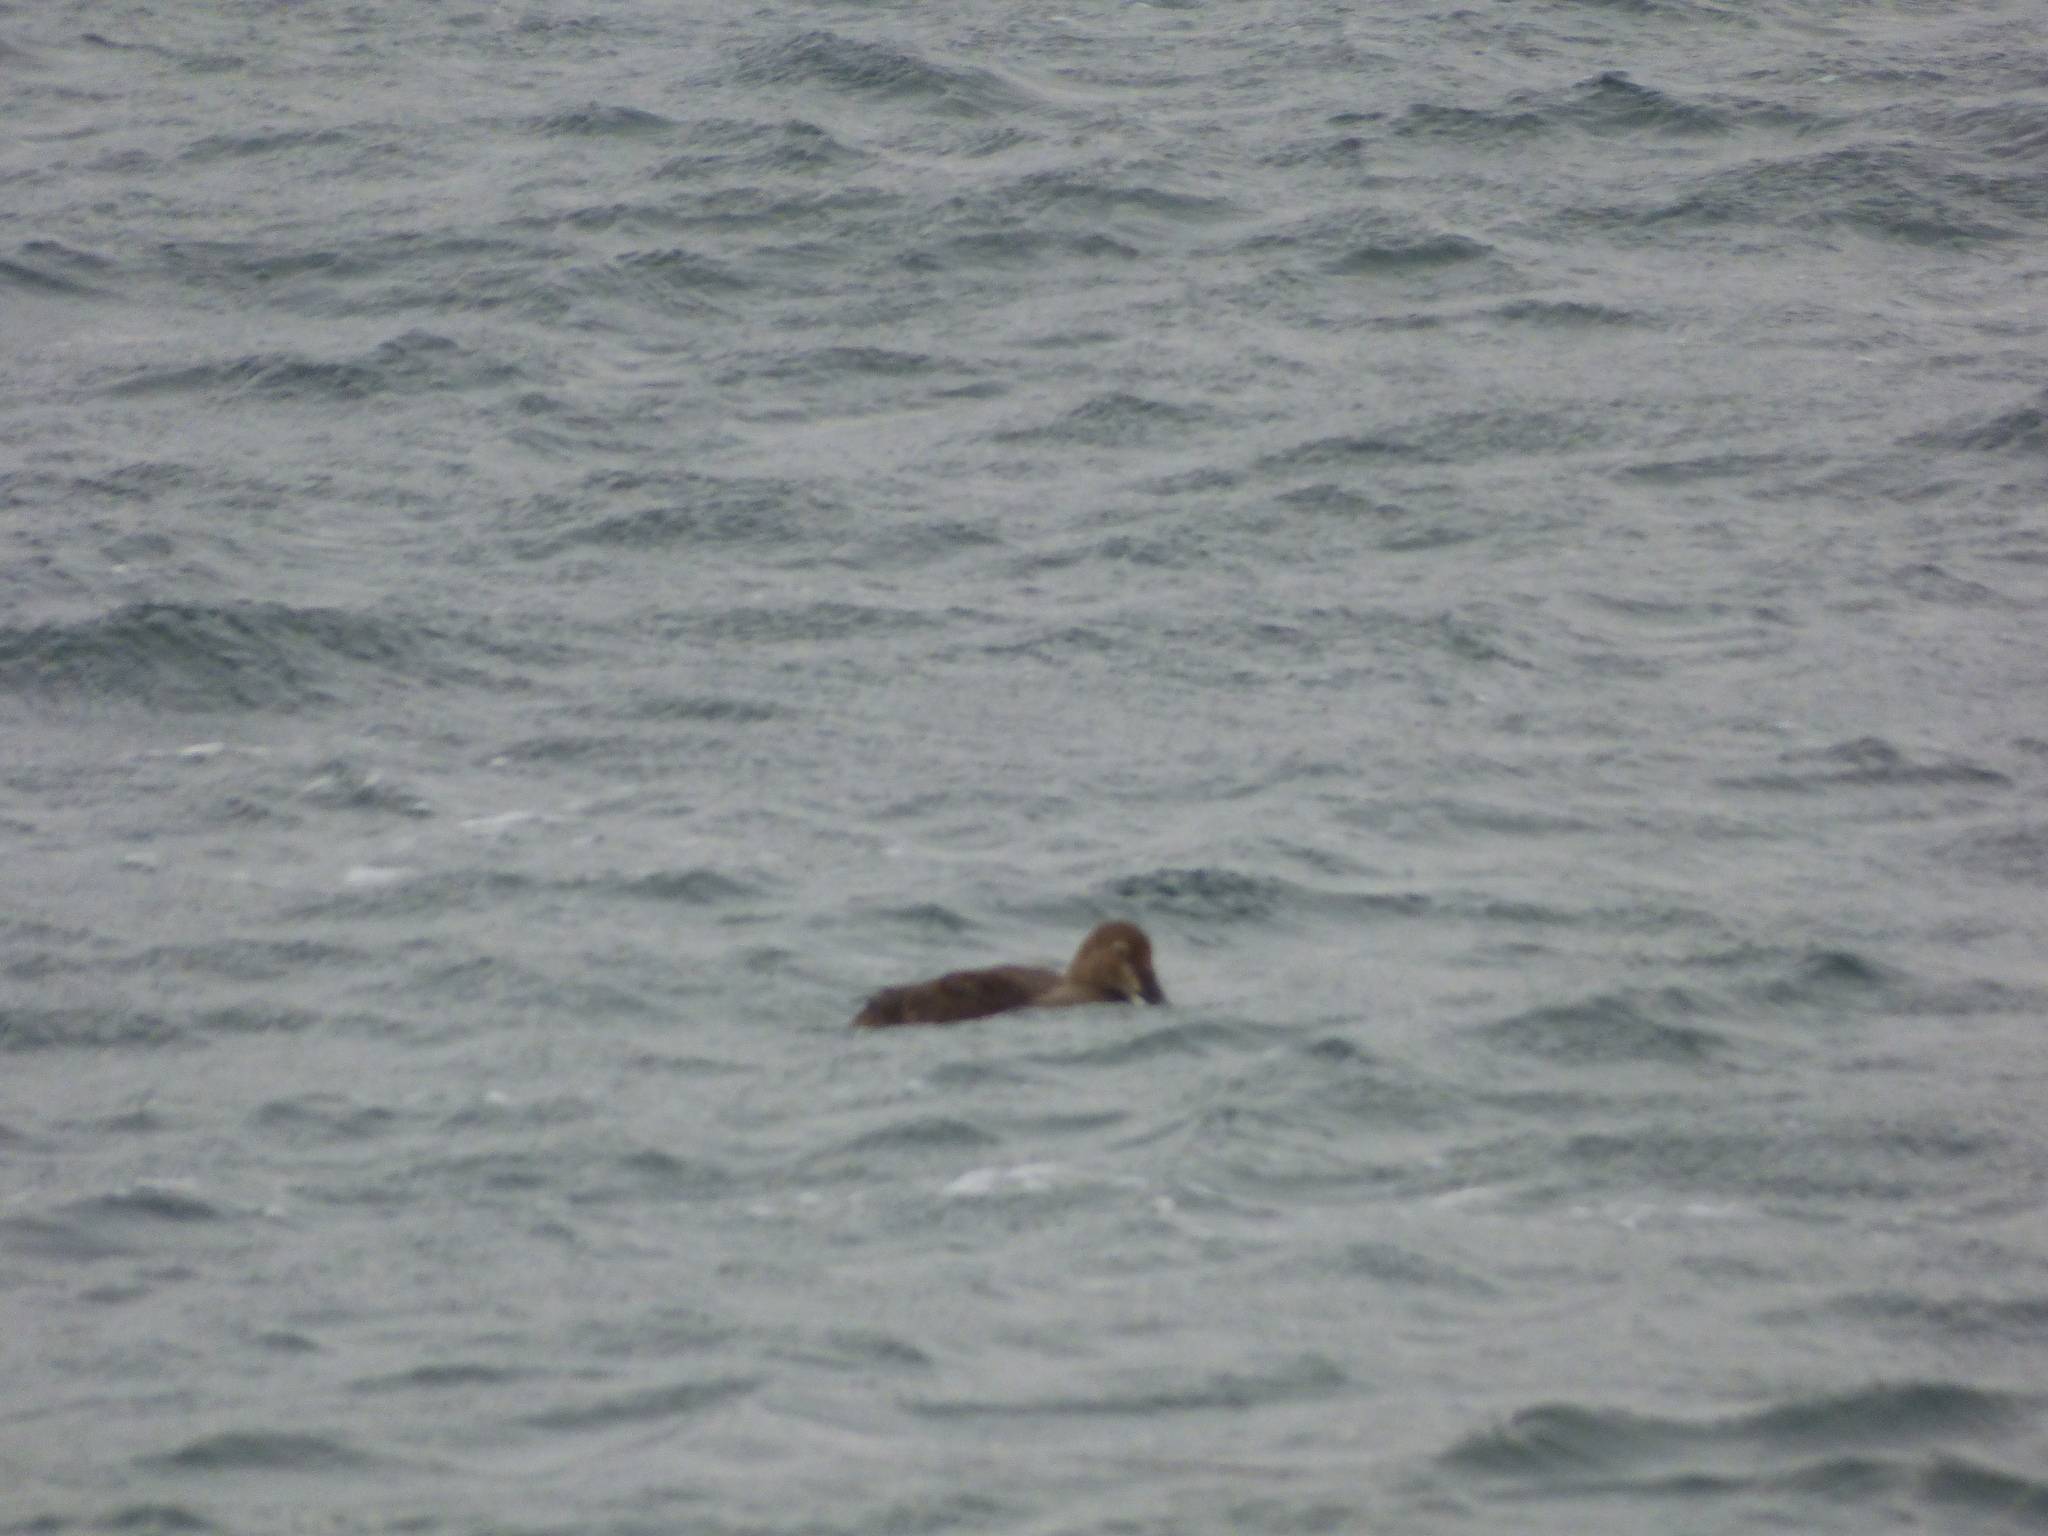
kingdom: Animalia
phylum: Chordata
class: Aves
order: Anseriformes
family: Anatidae
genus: Somateria
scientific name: Somateria spectabilis
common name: King eider
